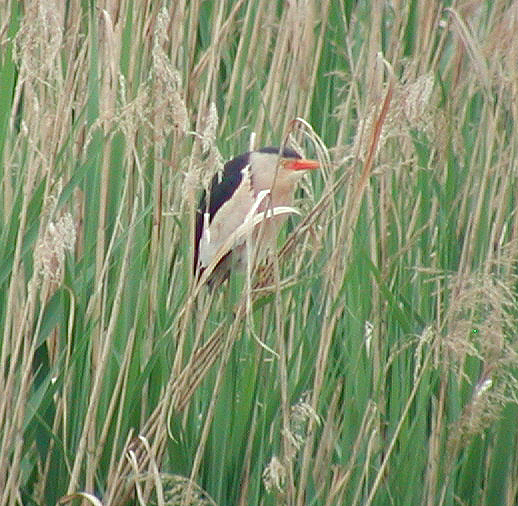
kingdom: Animalia
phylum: Chordata
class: Aves
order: Pelecaniformes
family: Ardeidae
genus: Ixobrychus
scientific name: Ixobrychus minutus
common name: Little bittern
